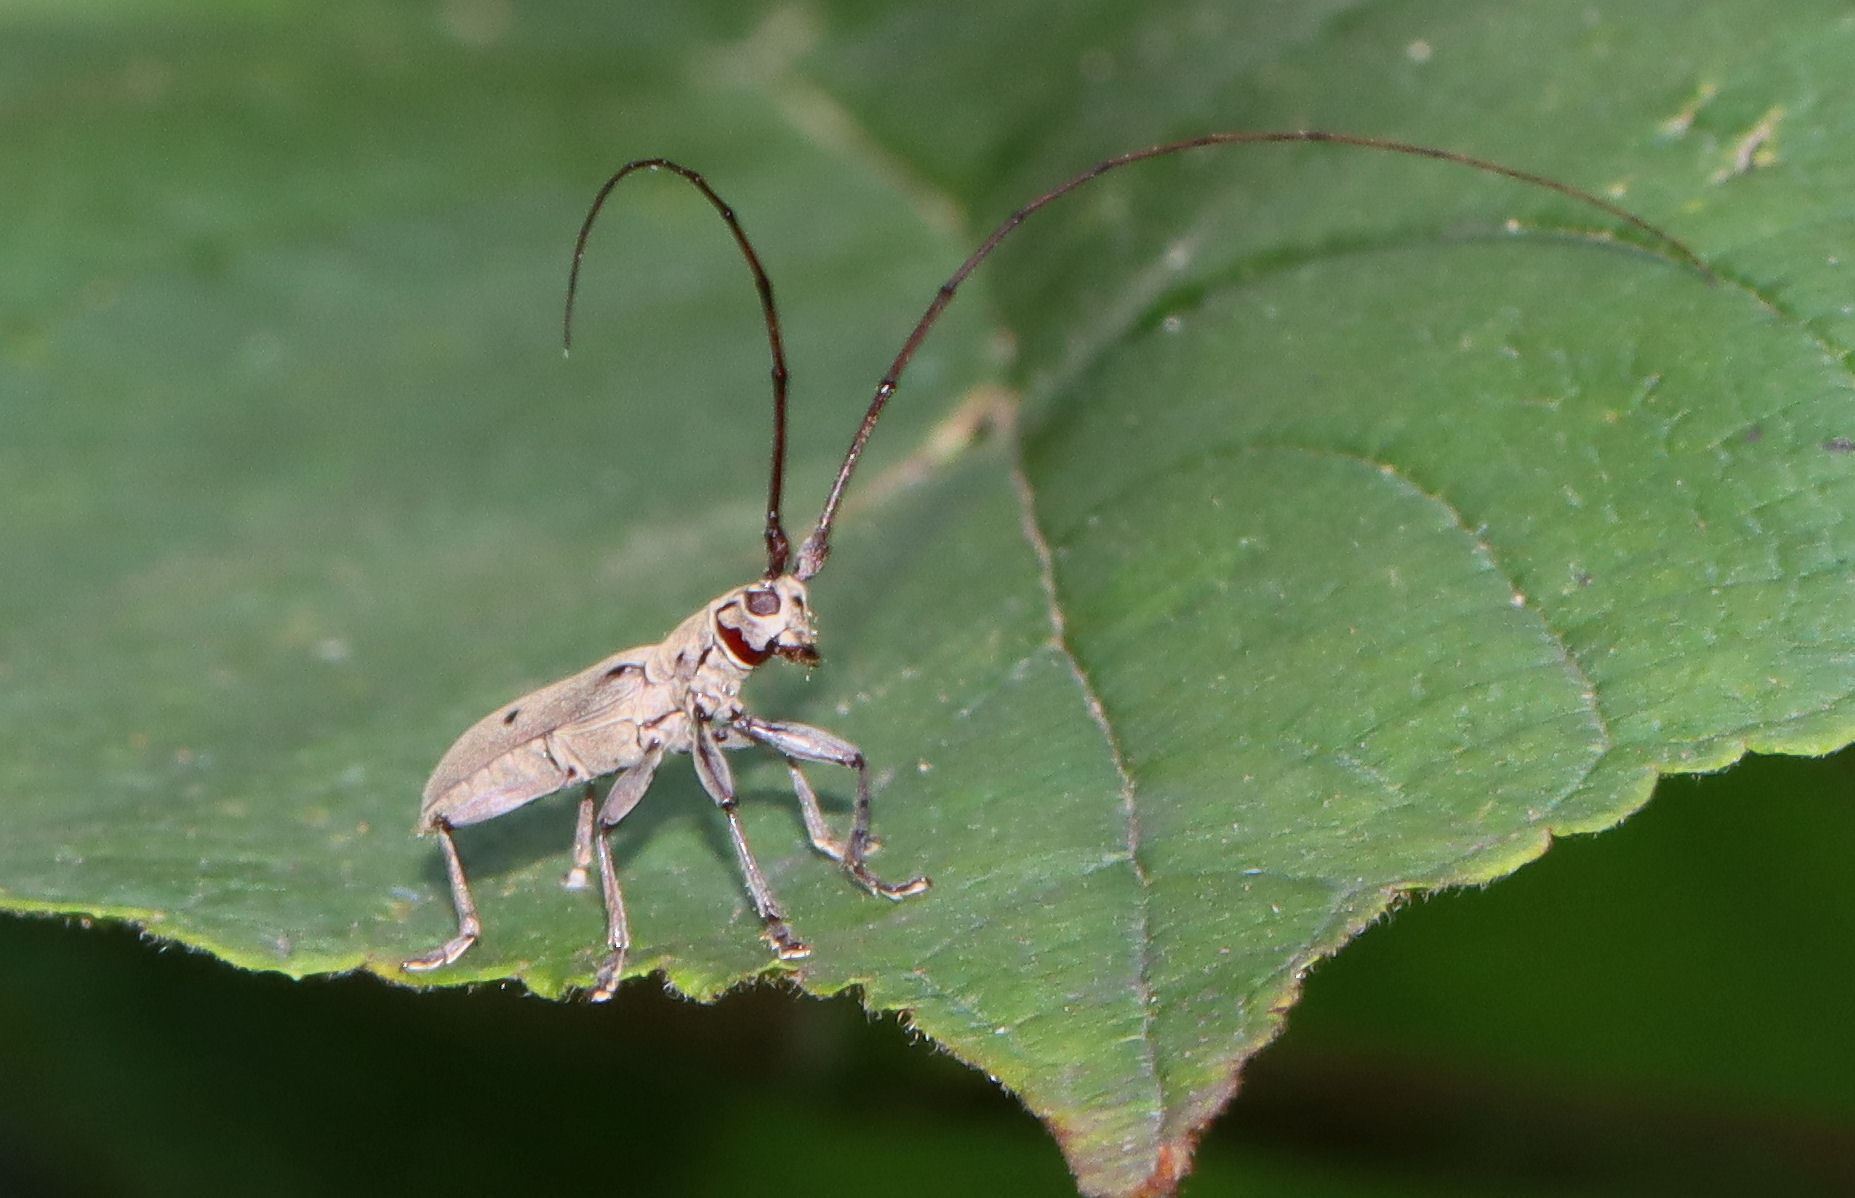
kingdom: Animalia
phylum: Arthropoda
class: Insecta
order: Coleoptera
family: Cerambycidae
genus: Dorcaschema
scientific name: Dorcaschema cinereum
